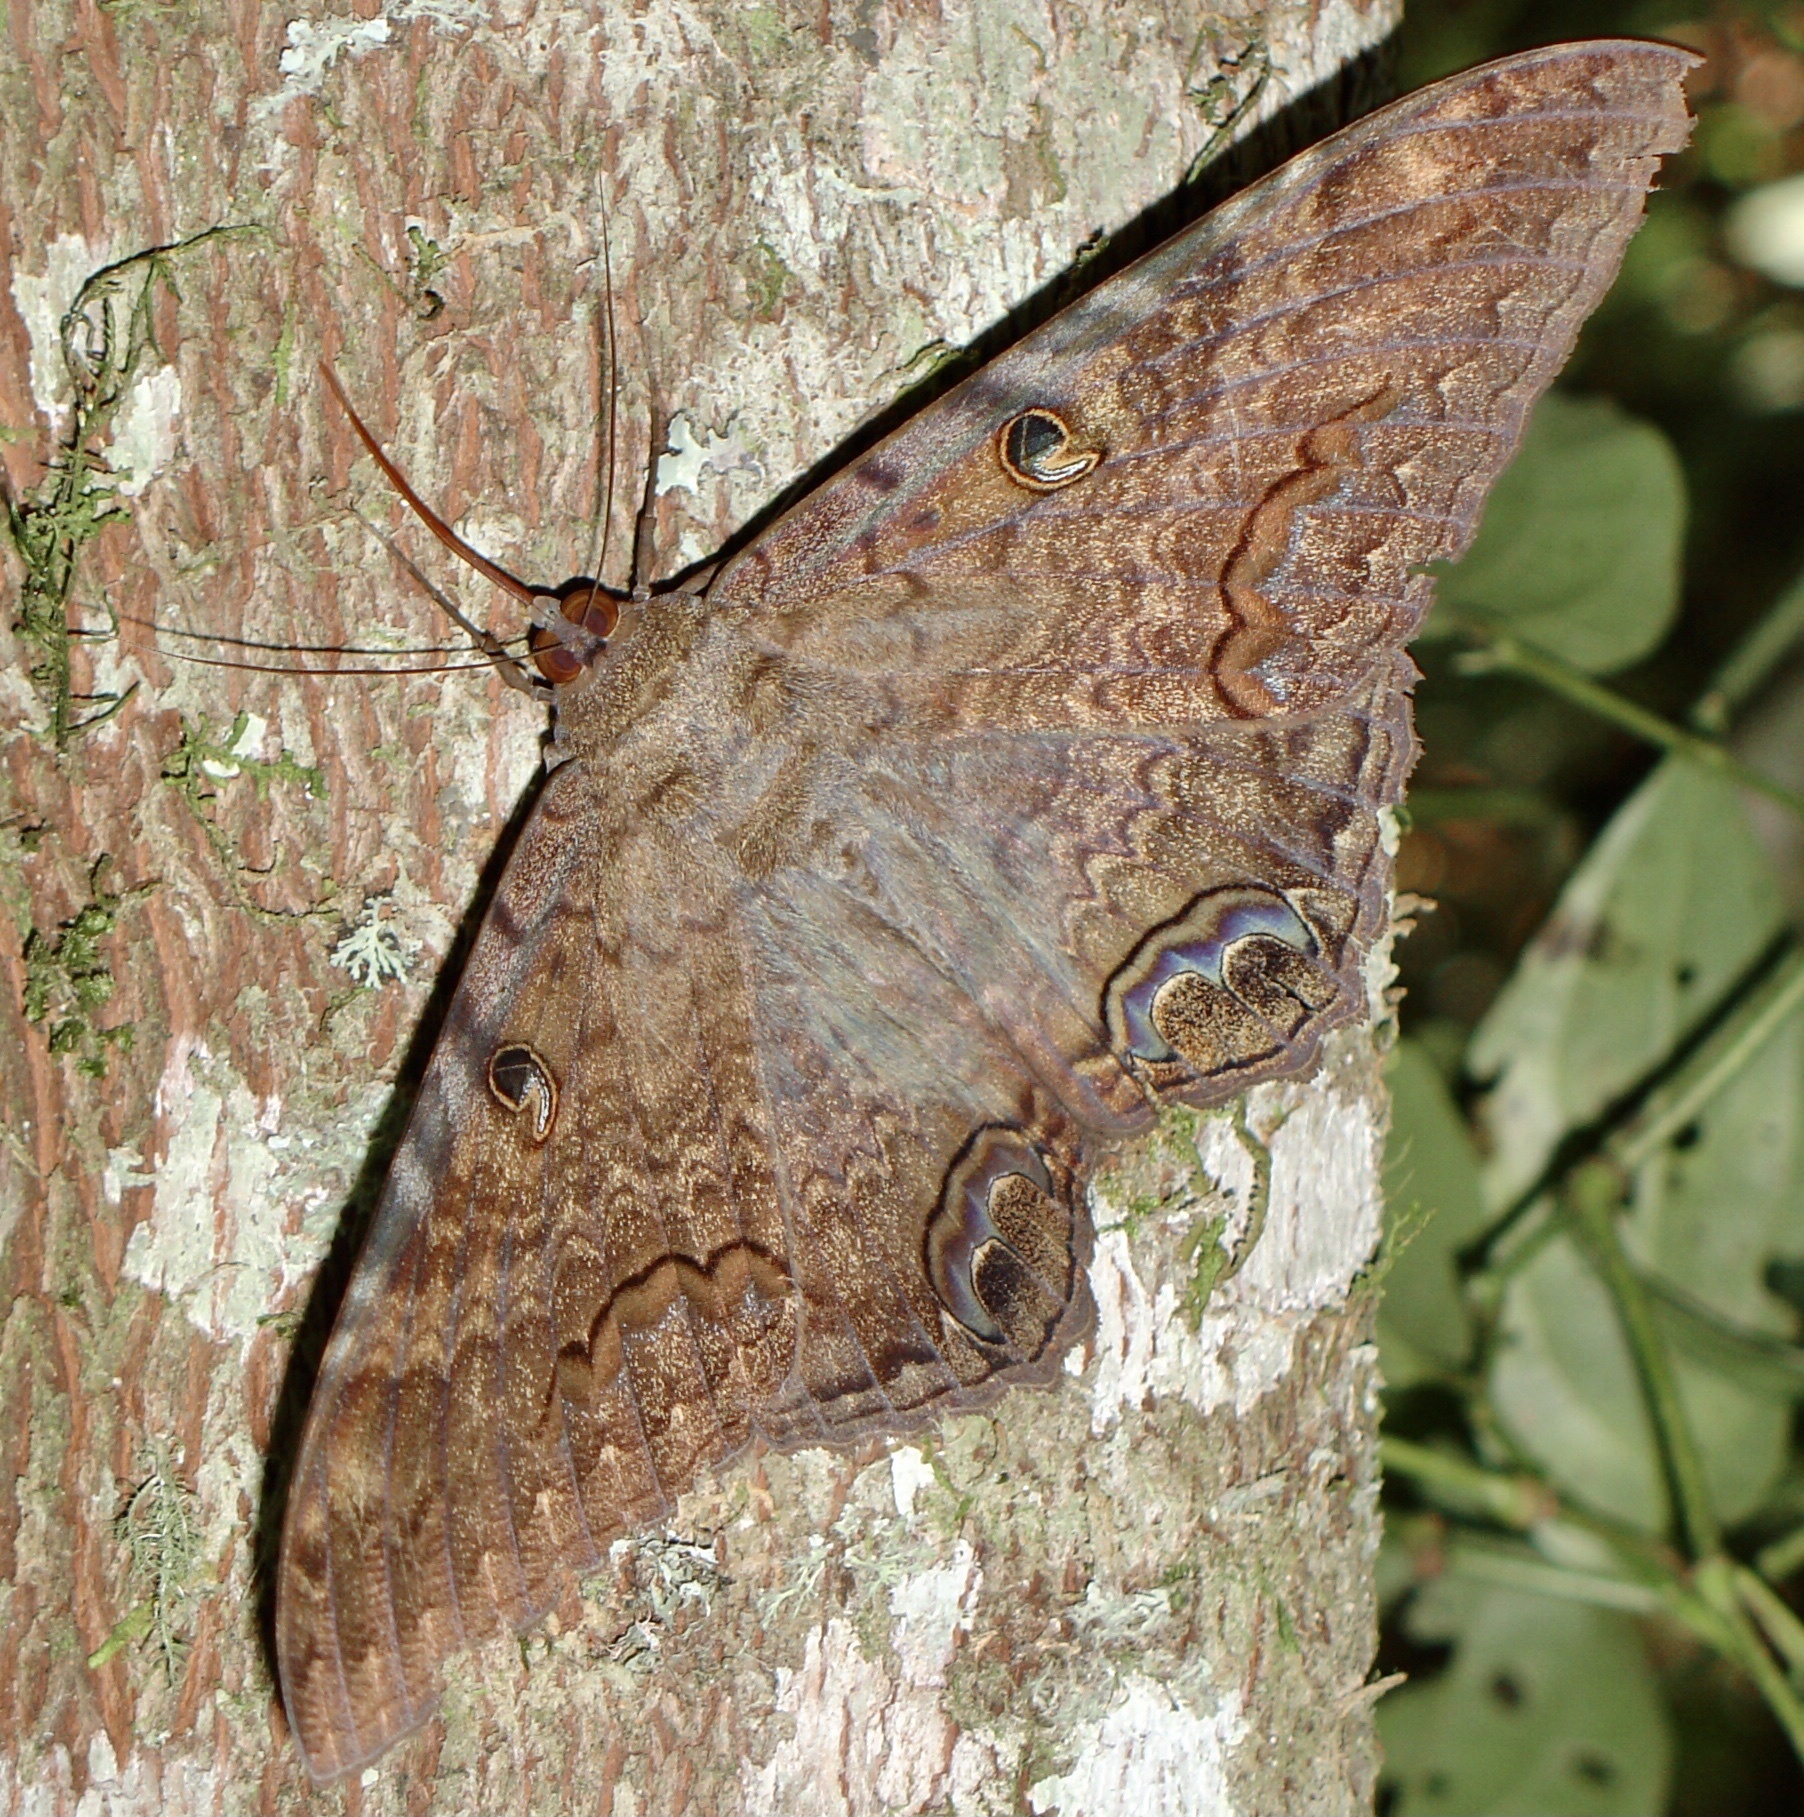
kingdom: Animalia
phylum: Arthropoda
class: Insecta
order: Lepidoptera
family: Erebidae
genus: Ascalapha
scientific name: Ascalapha odorata
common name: Black witch
